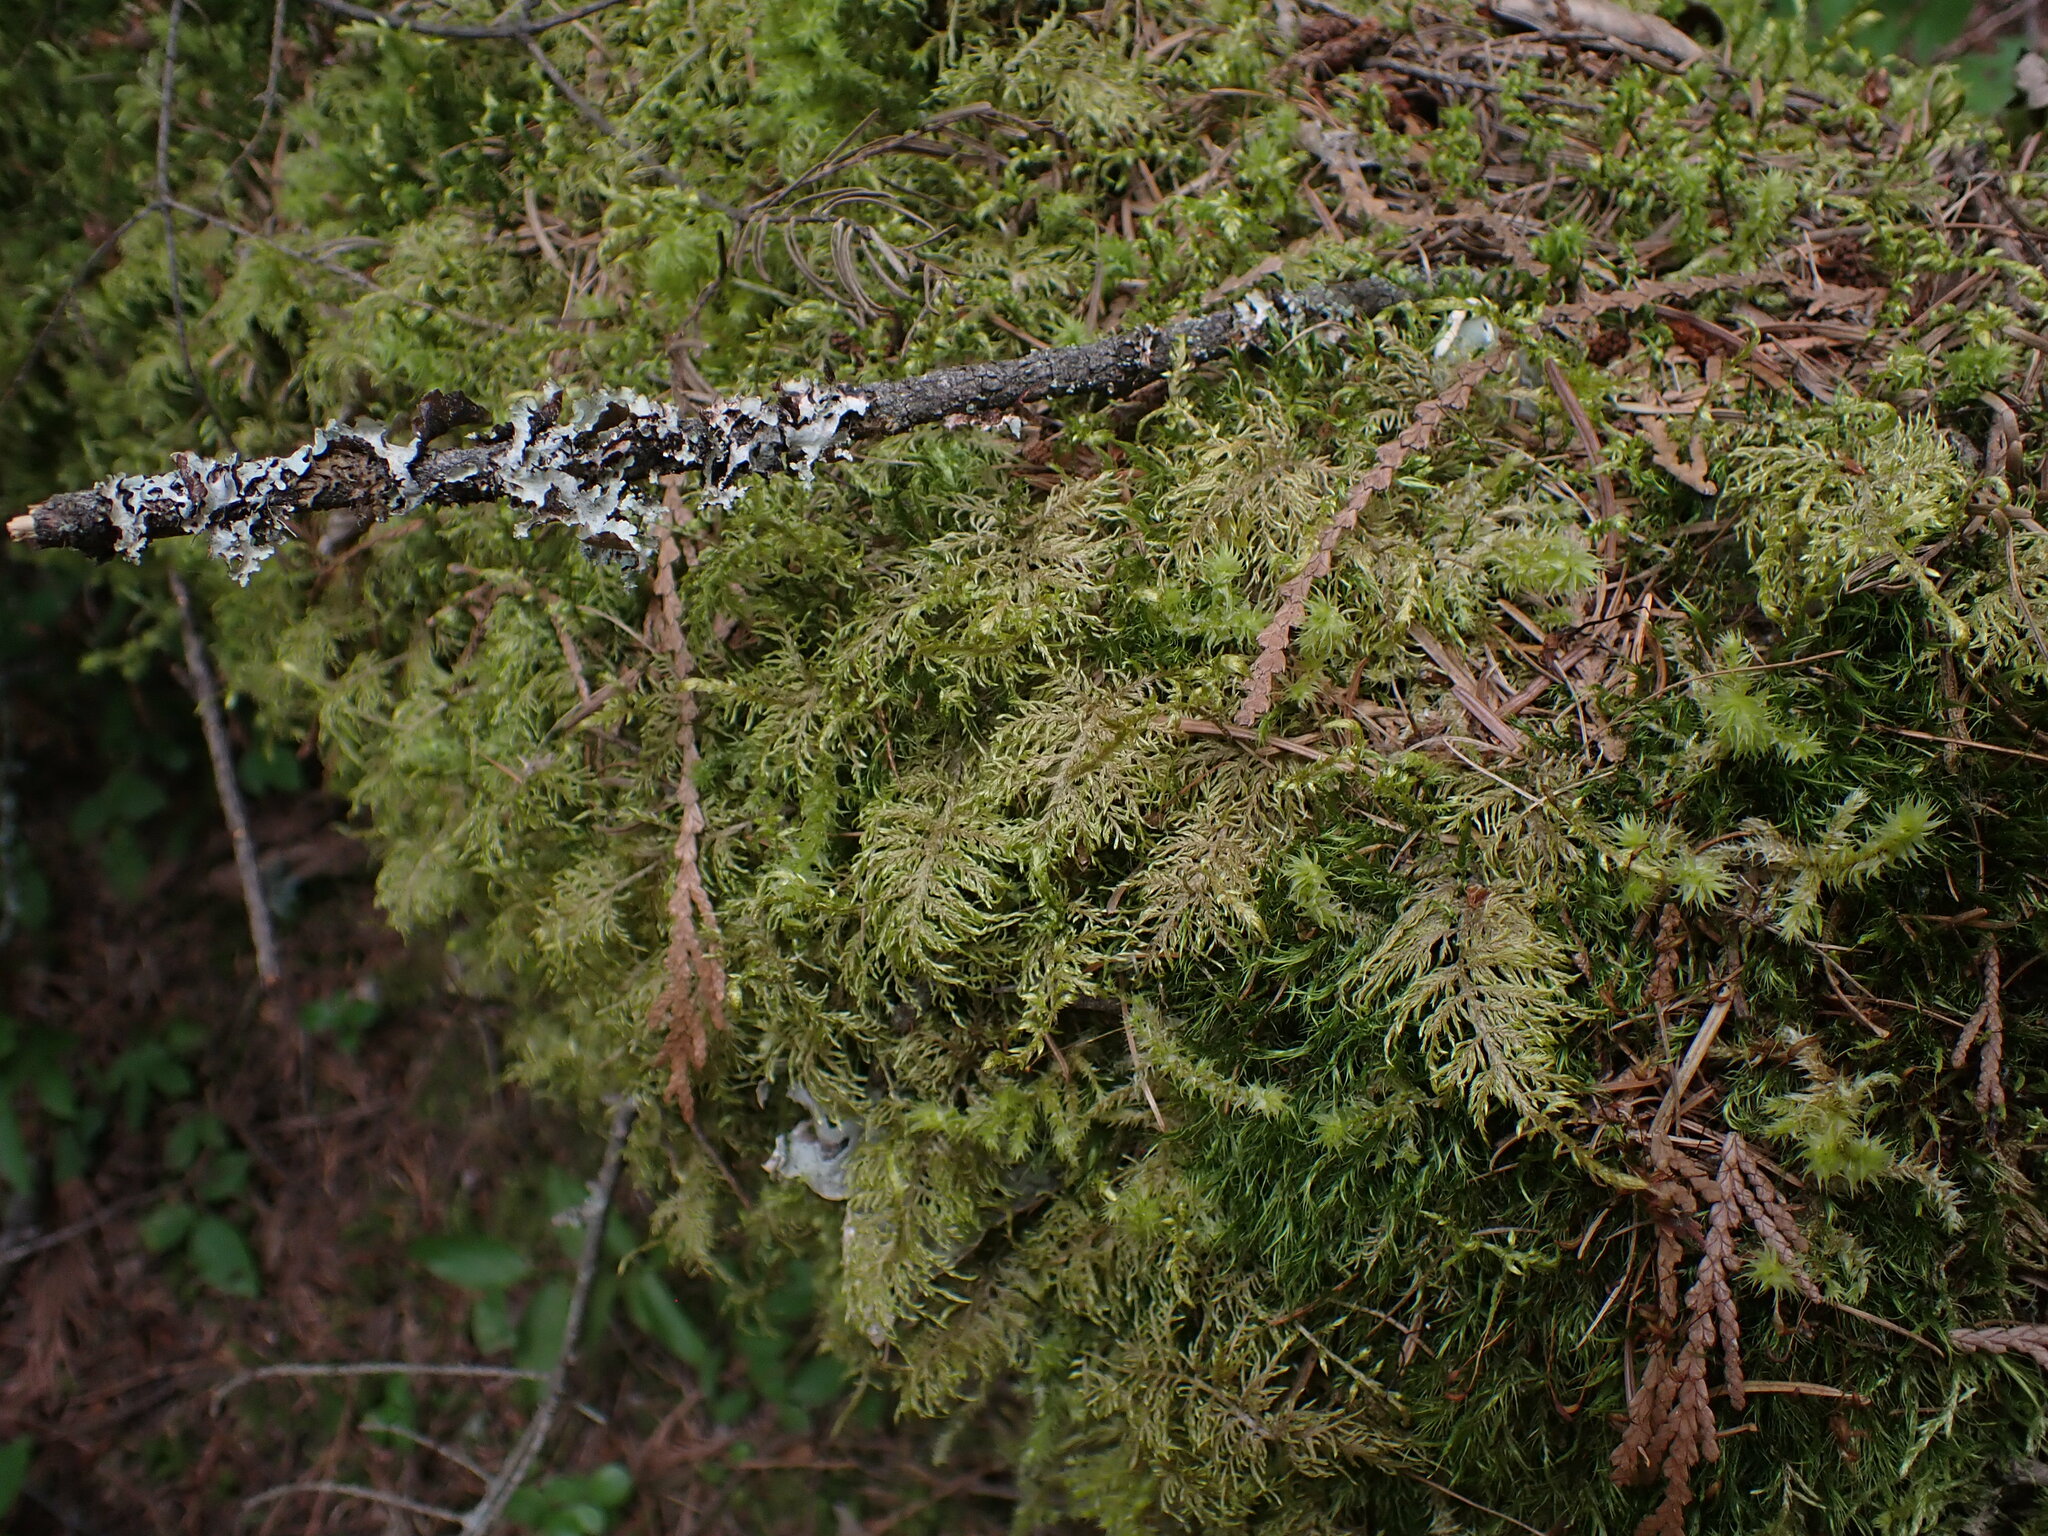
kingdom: Plantae
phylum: Bryophyta
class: Bryopsida
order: Hypnales
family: Hylocomiaceae
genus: Hylocomium
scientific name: Hylocomium splendens
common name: Stairstep moss
